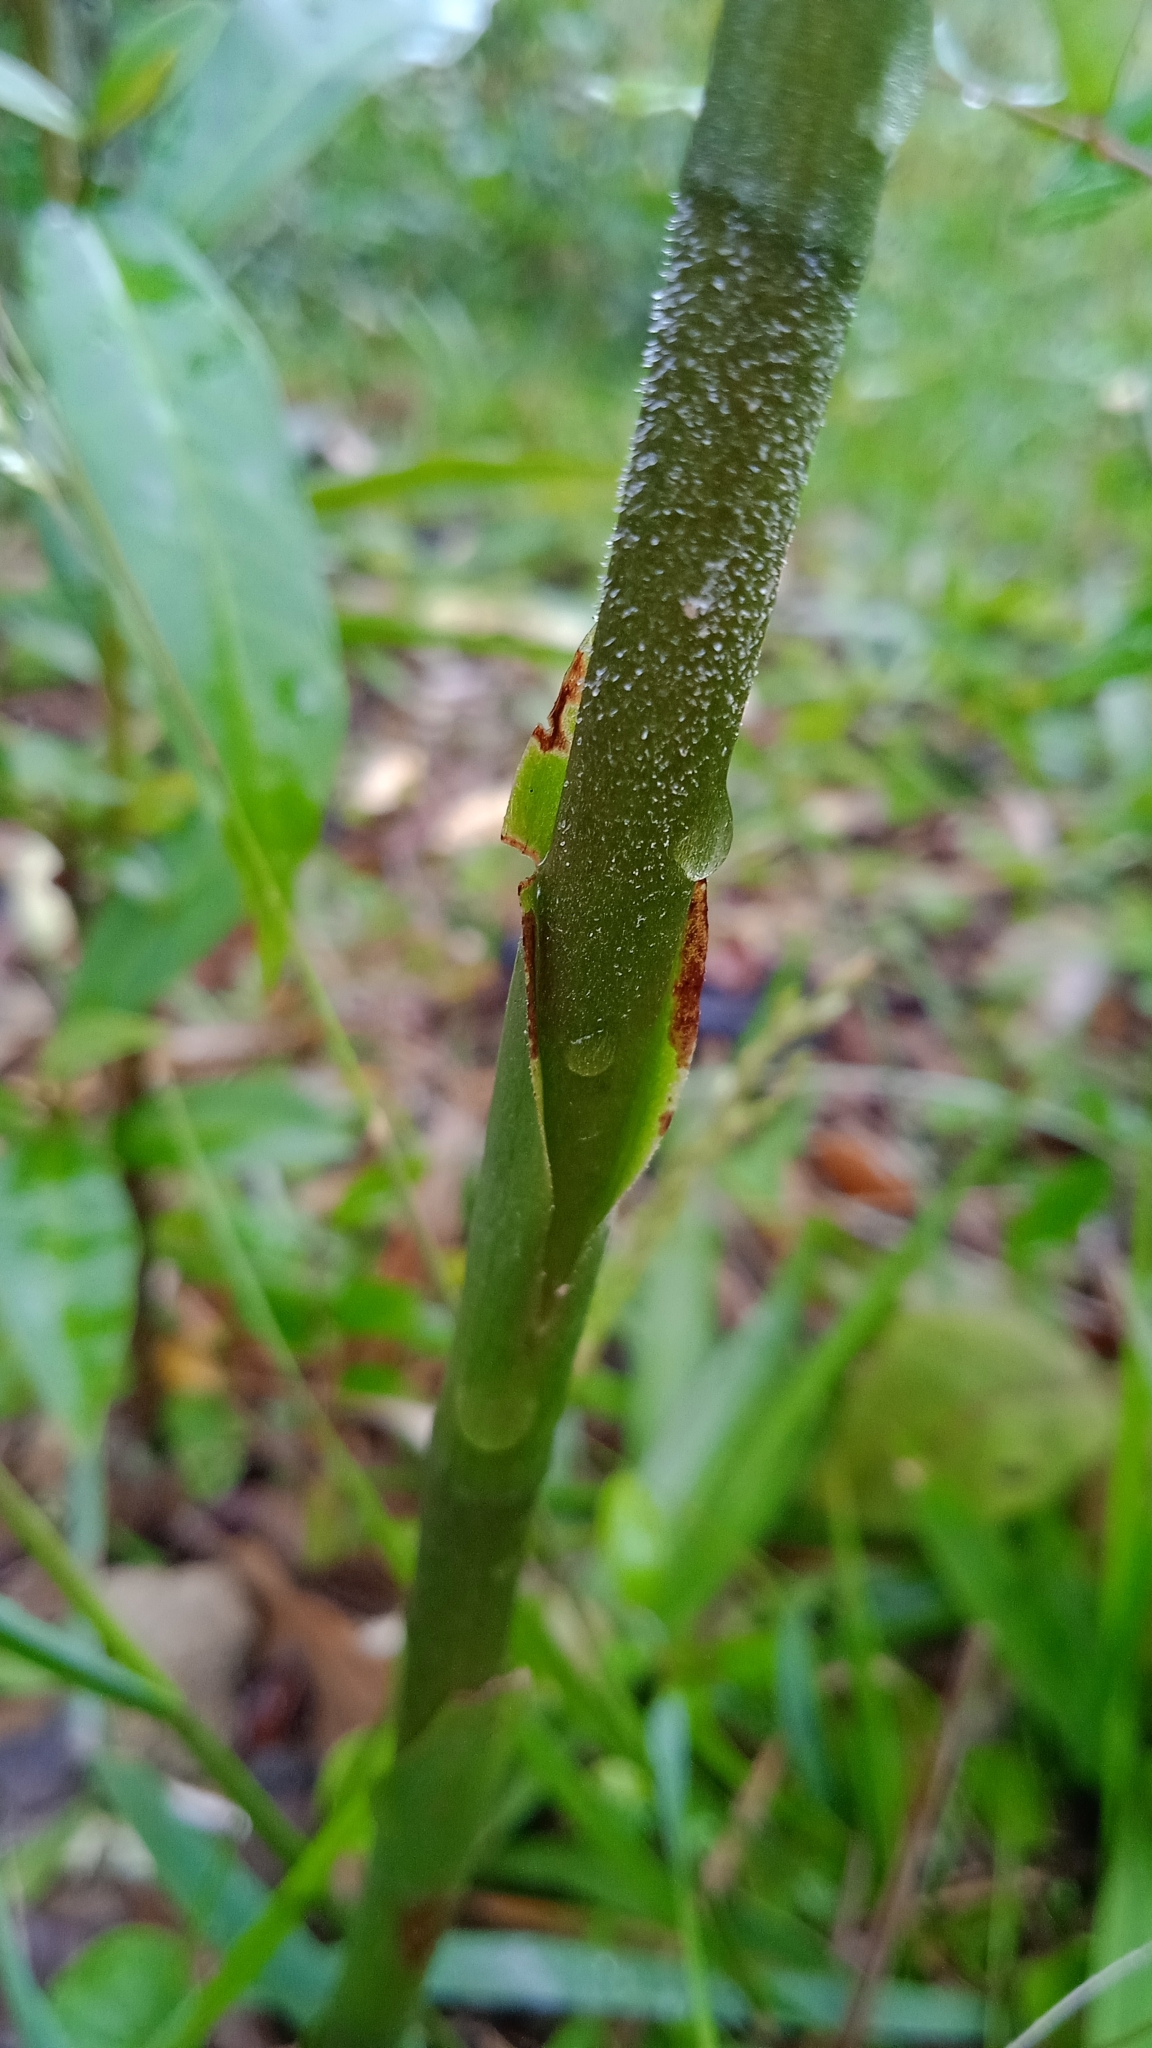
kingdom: Plantae
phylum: Tracheophyta
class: Liliopsida
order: Asparagales
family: Orchidaceae
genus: Sacoila
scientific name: Sacoila lanceolata
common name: Leafless beaked ladiestresses
